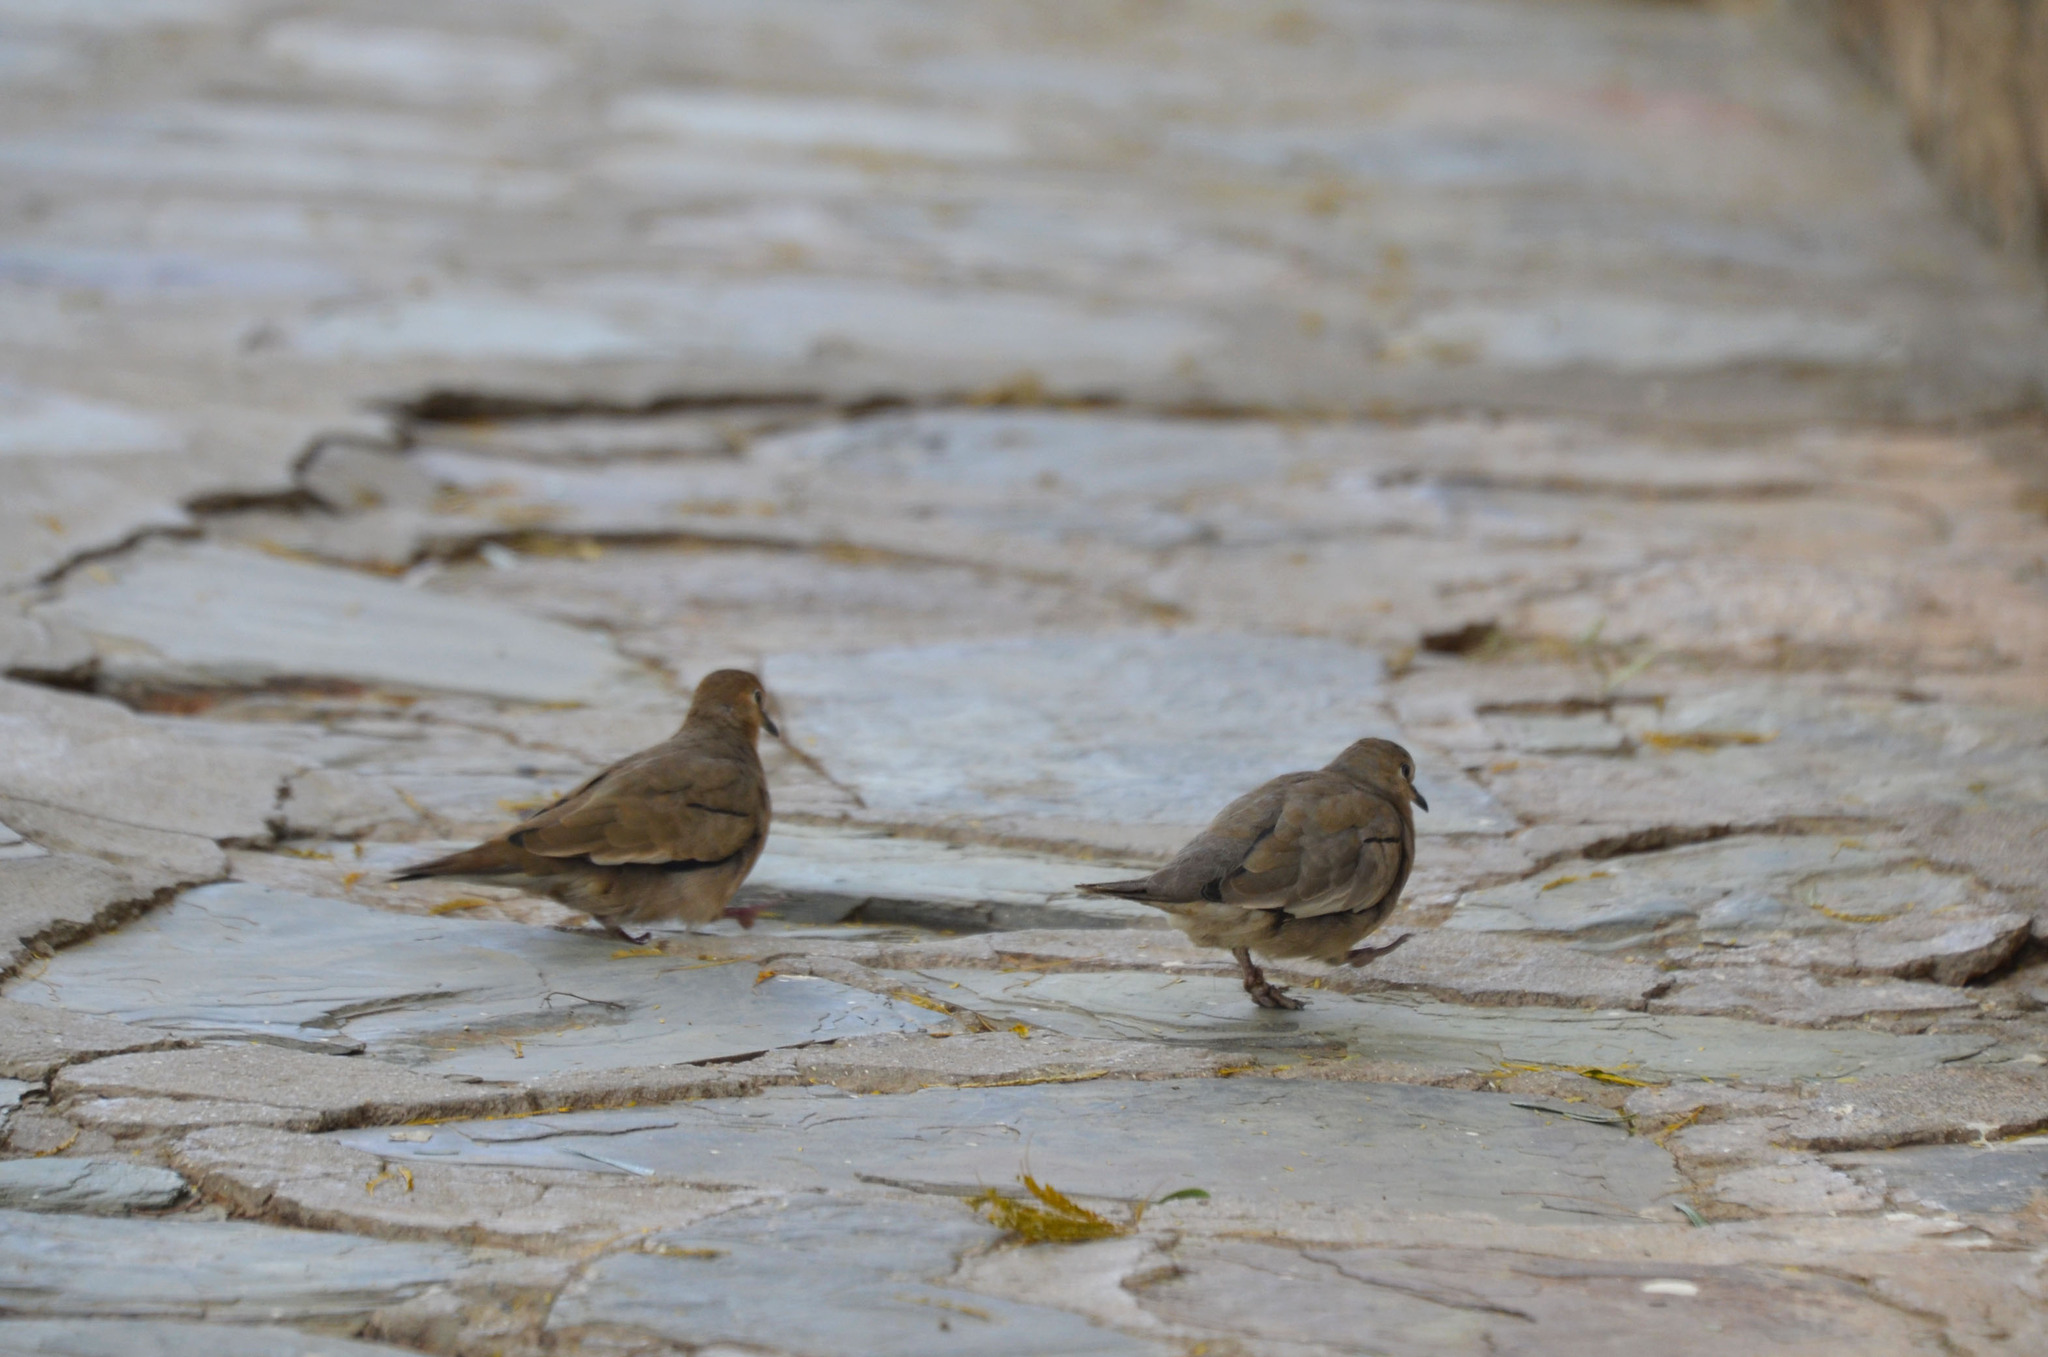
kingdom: Animalia
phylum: Chordata
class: Aves
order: Columbiformes
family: Columbidae
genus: Columbina
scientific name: Columbina picui
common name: Picui ground dove
